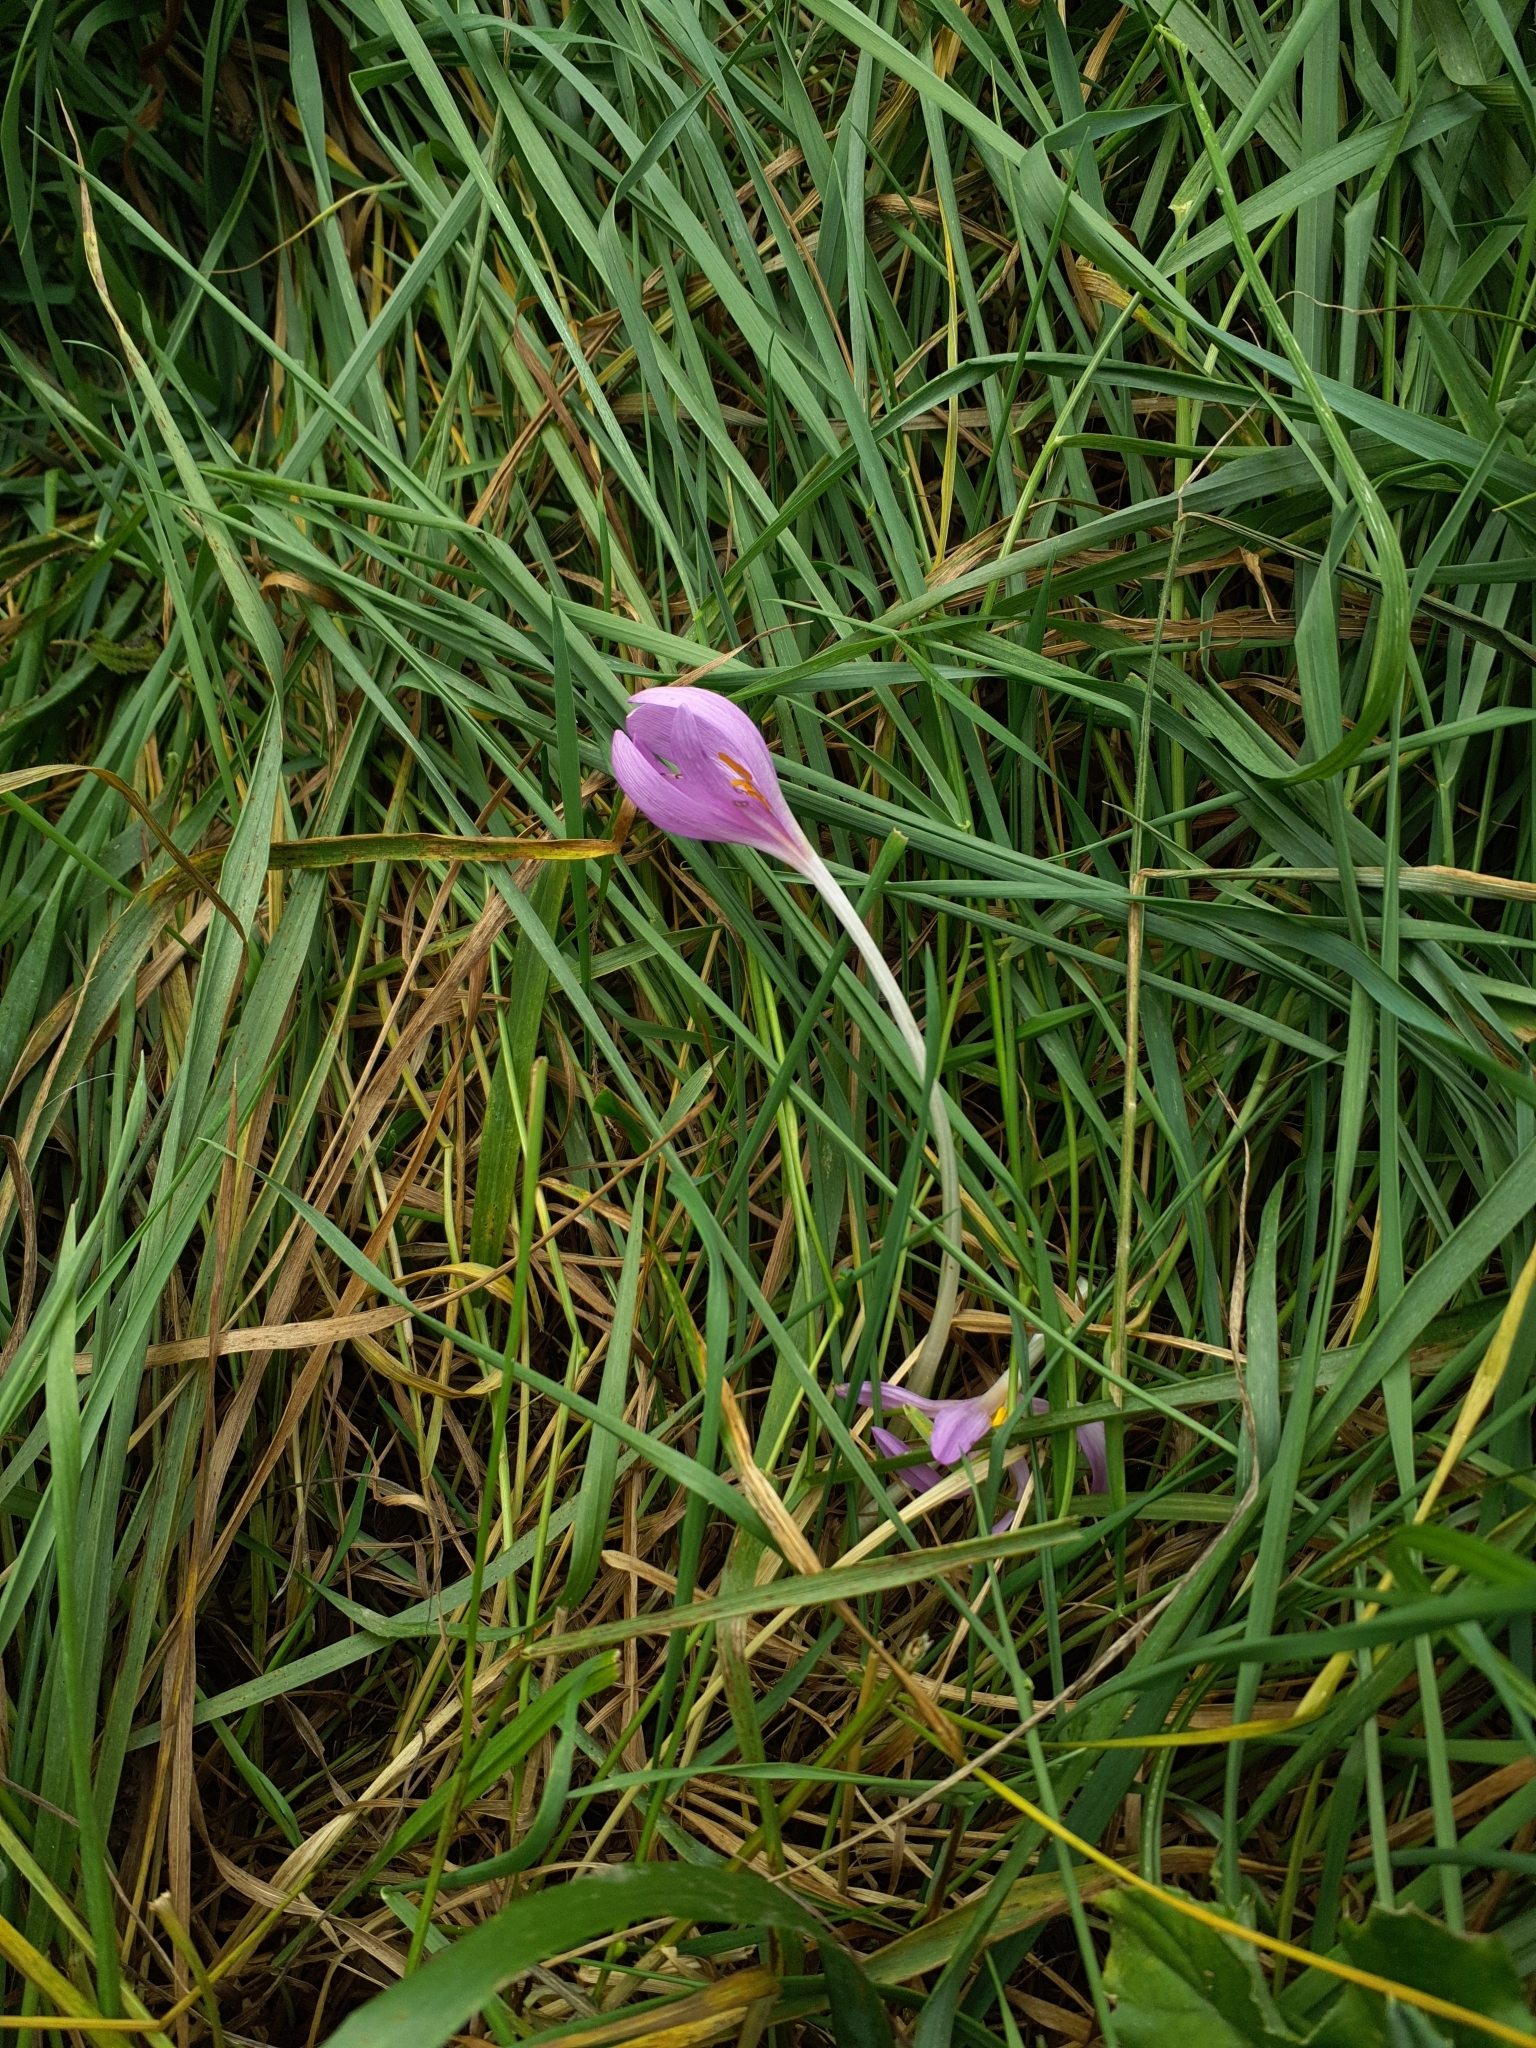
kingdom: Plantae
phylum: Tracheophyta
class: Liliopsida
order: Liliales
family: Colchicaceae
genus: Colchicum
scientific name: Colchicum autumnale
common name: Autumn crocus
